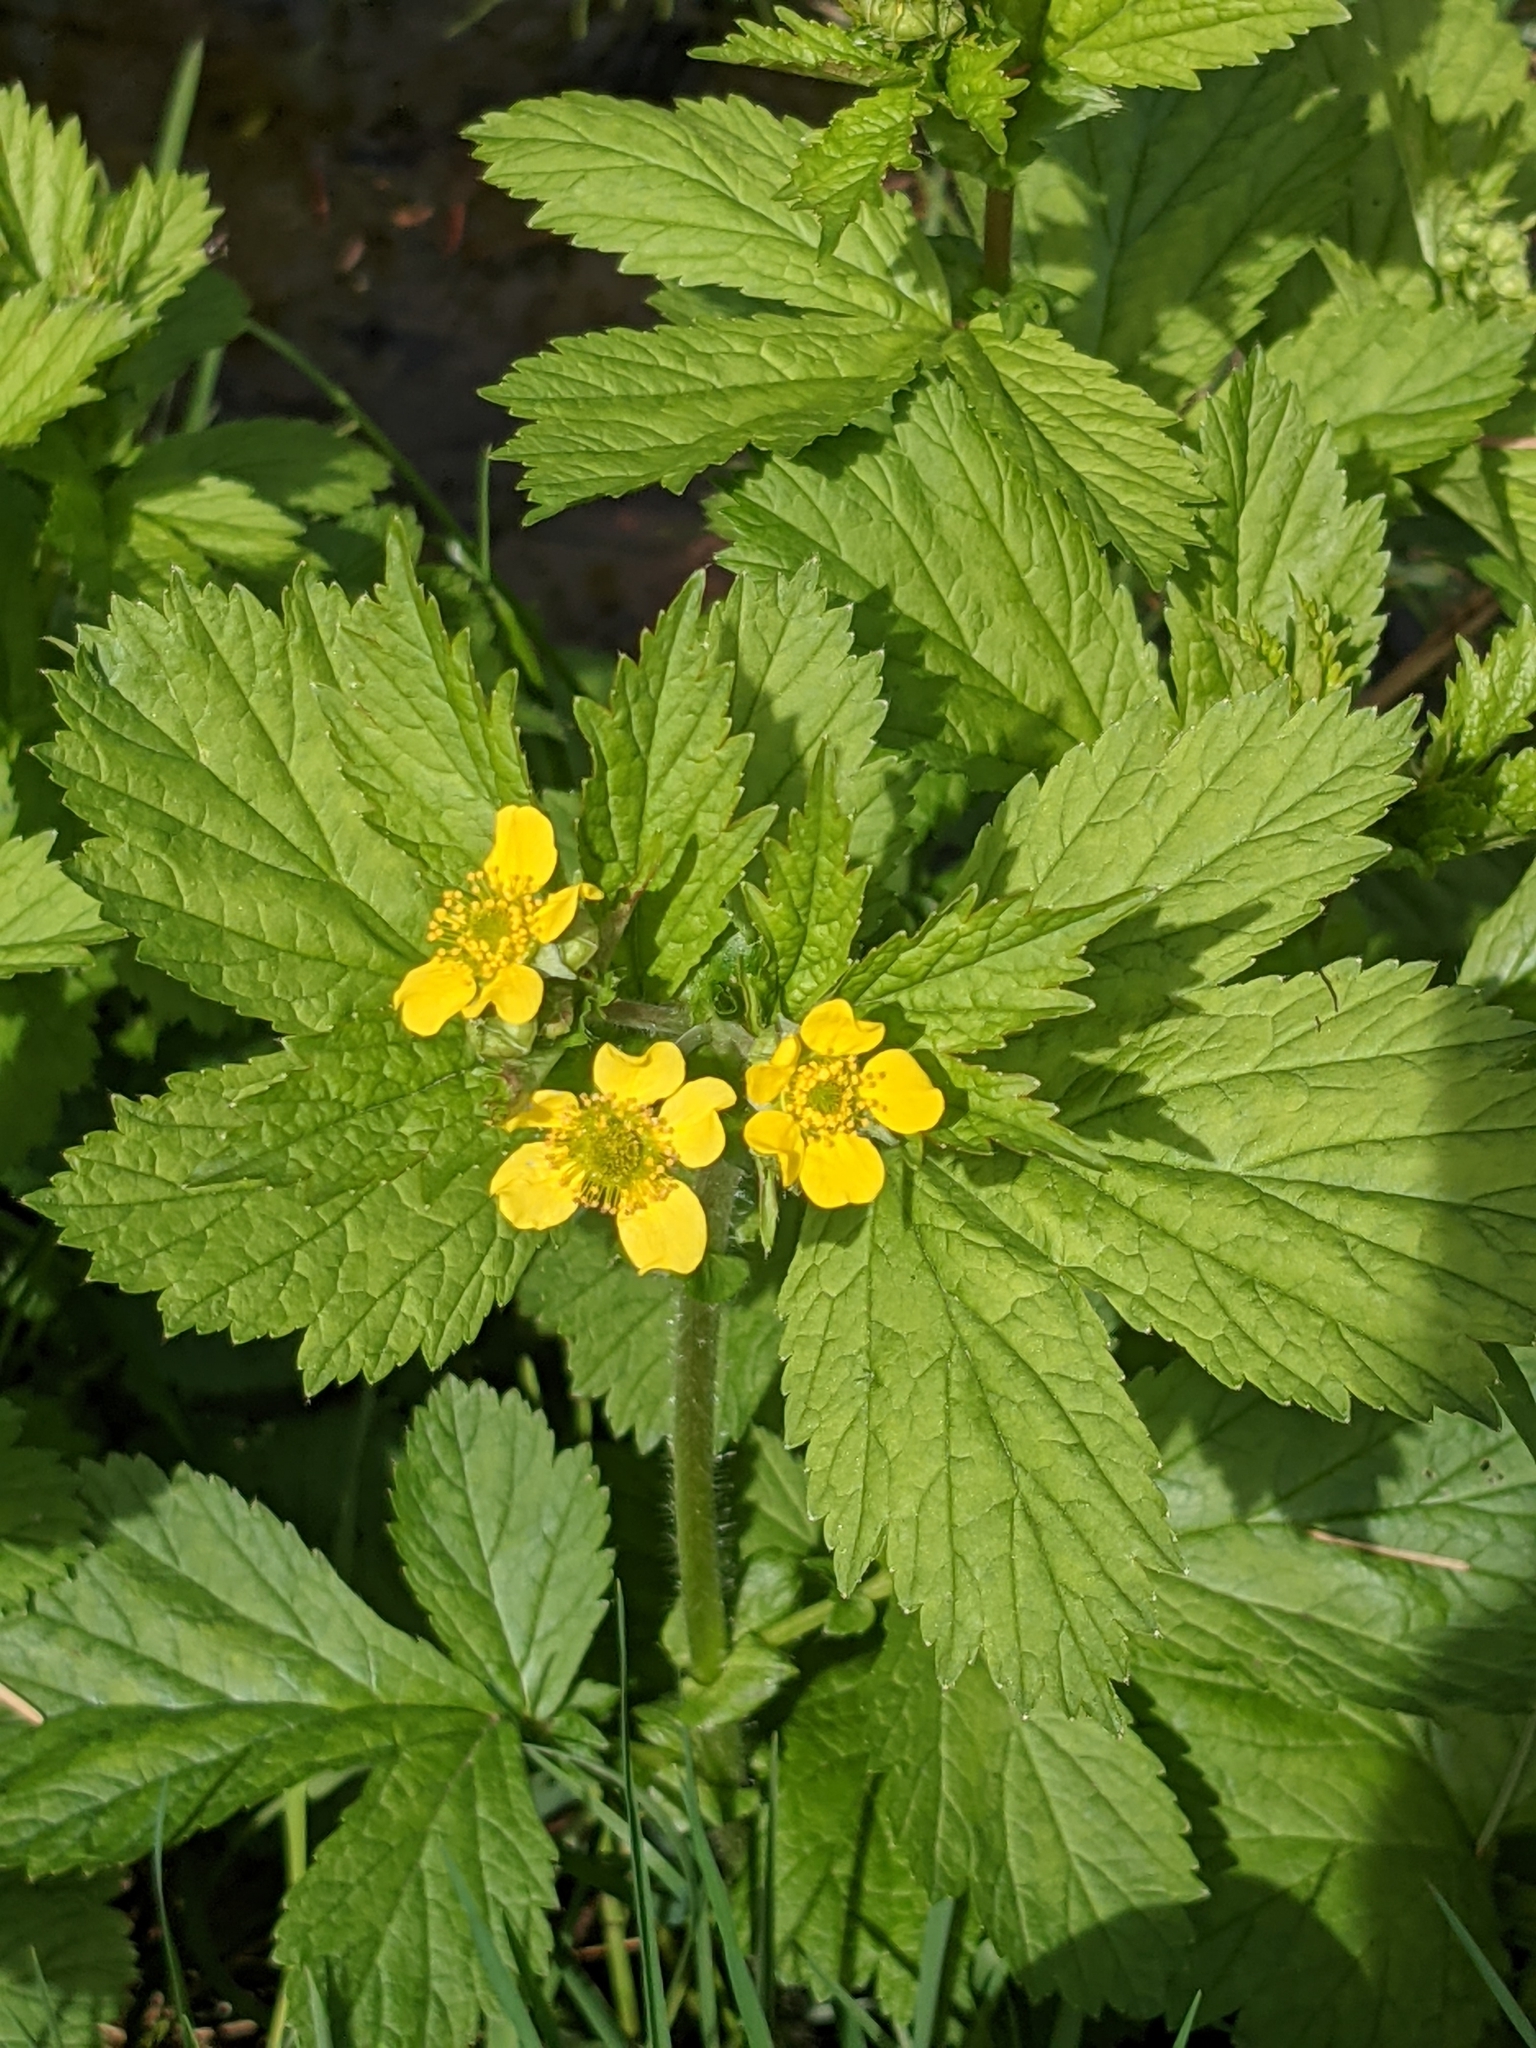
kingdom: Plantae
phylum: Tracheophyta
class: Magnoliopsida
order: Rosales
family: Rosaceae
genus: Geum
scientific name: Geum macrophyllum
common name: Large-leaved avens
